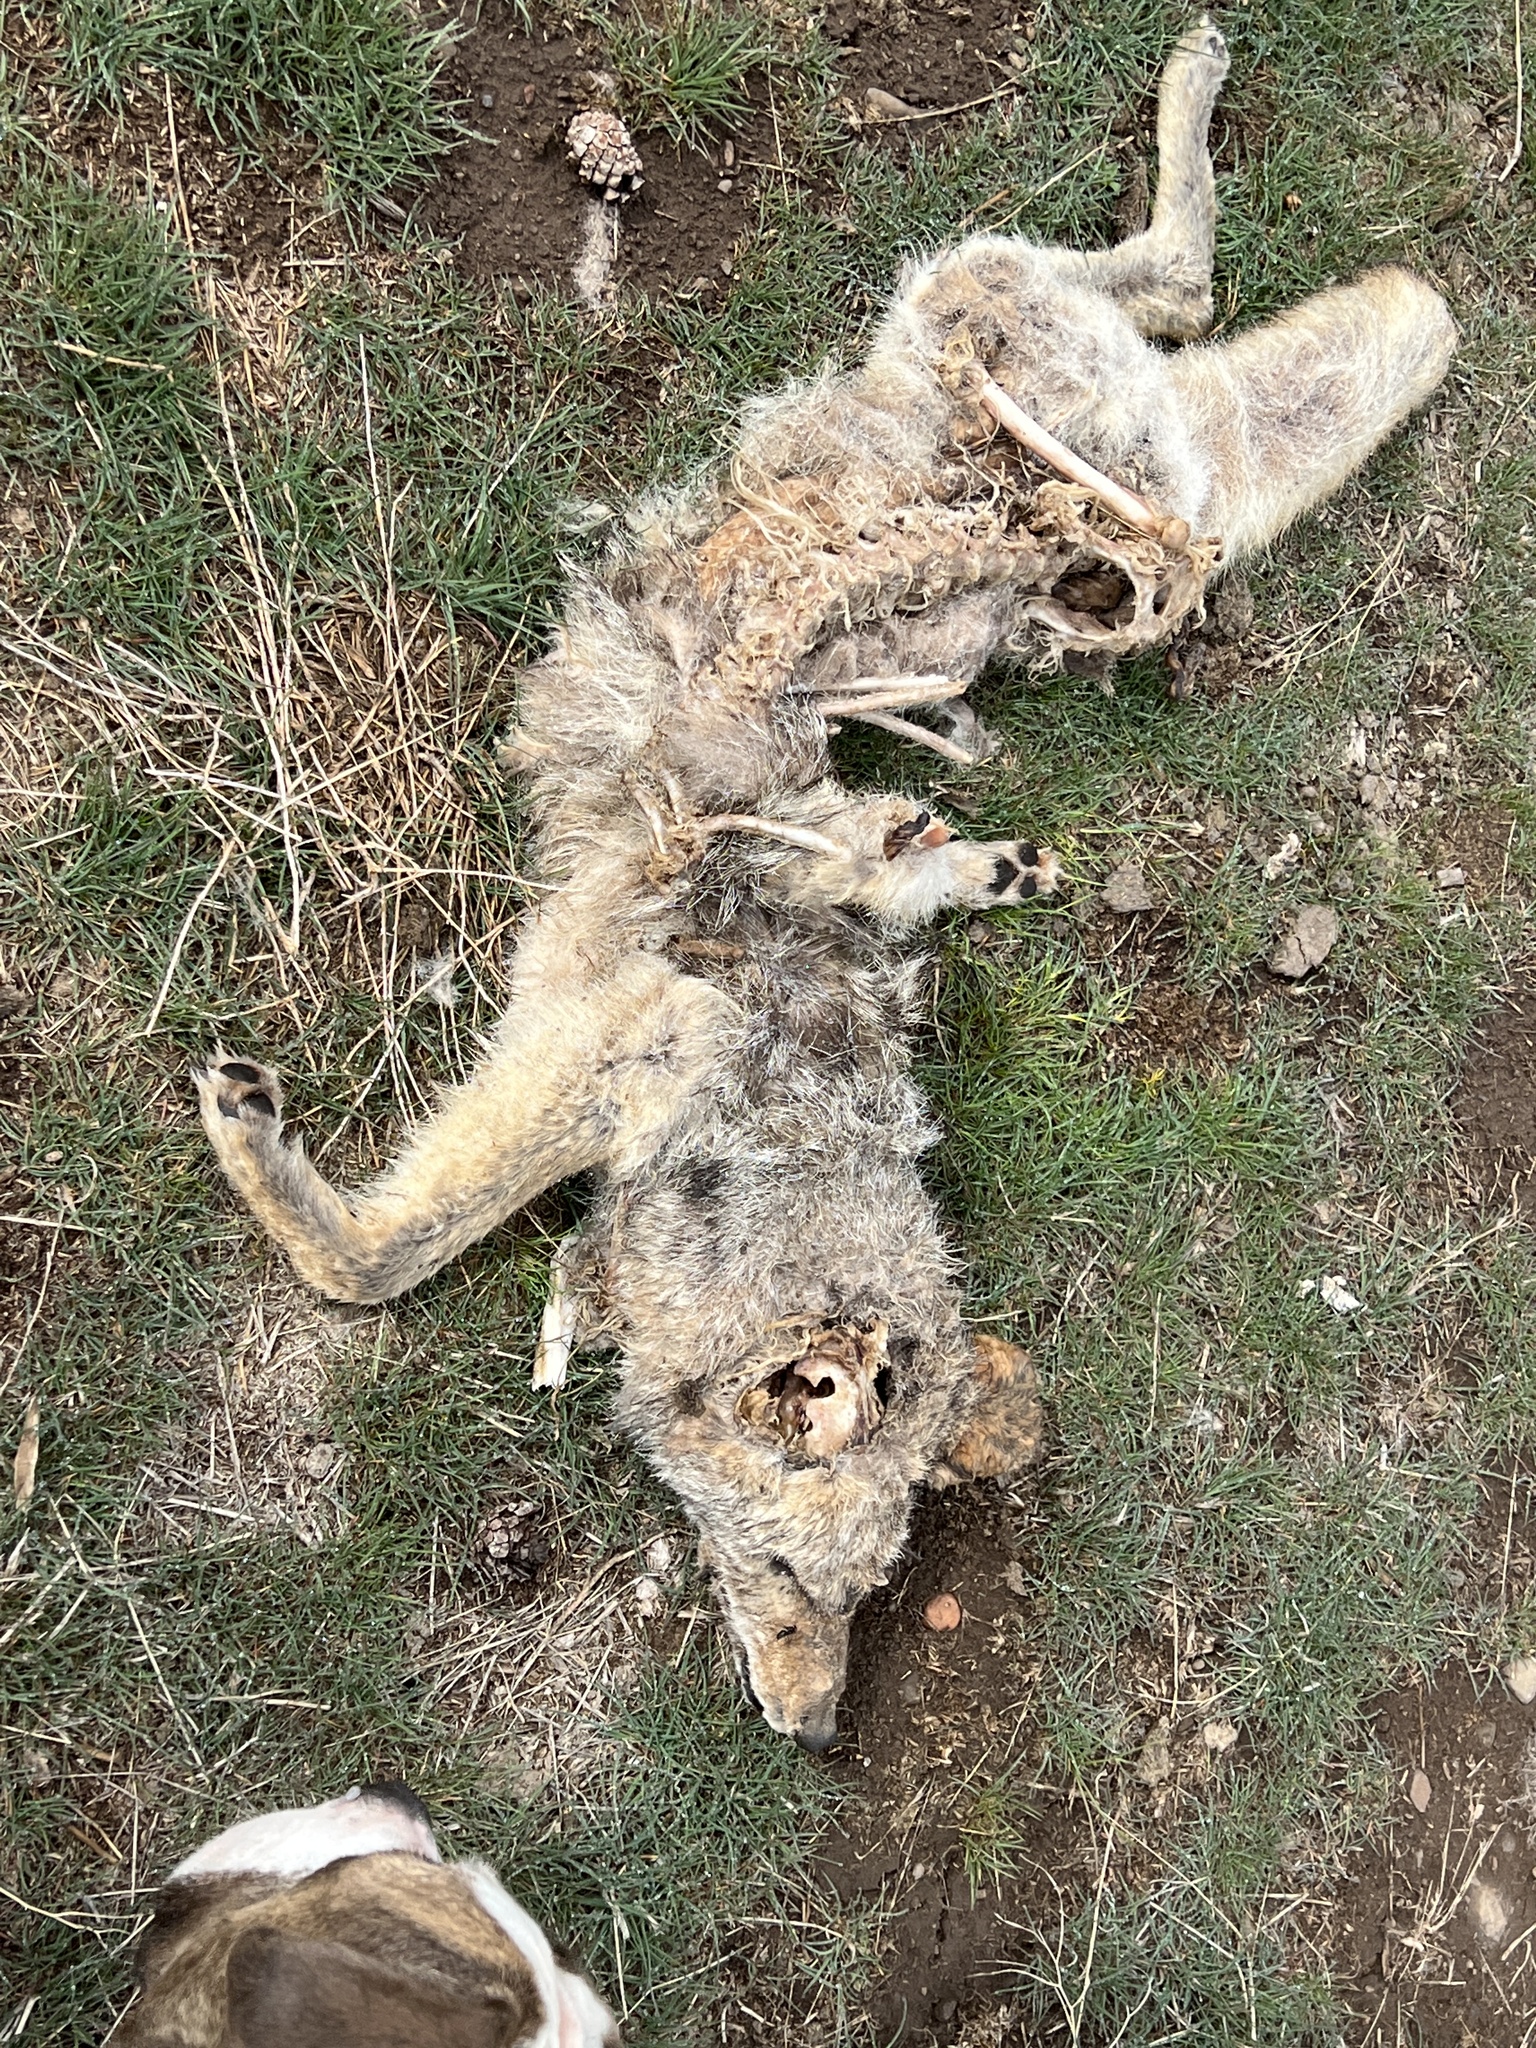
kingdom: Animalia
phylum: Chordata
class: Mammalia
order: Carnivora
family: Canidae
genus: Canis
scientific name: Canis latrans
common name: Coyote
